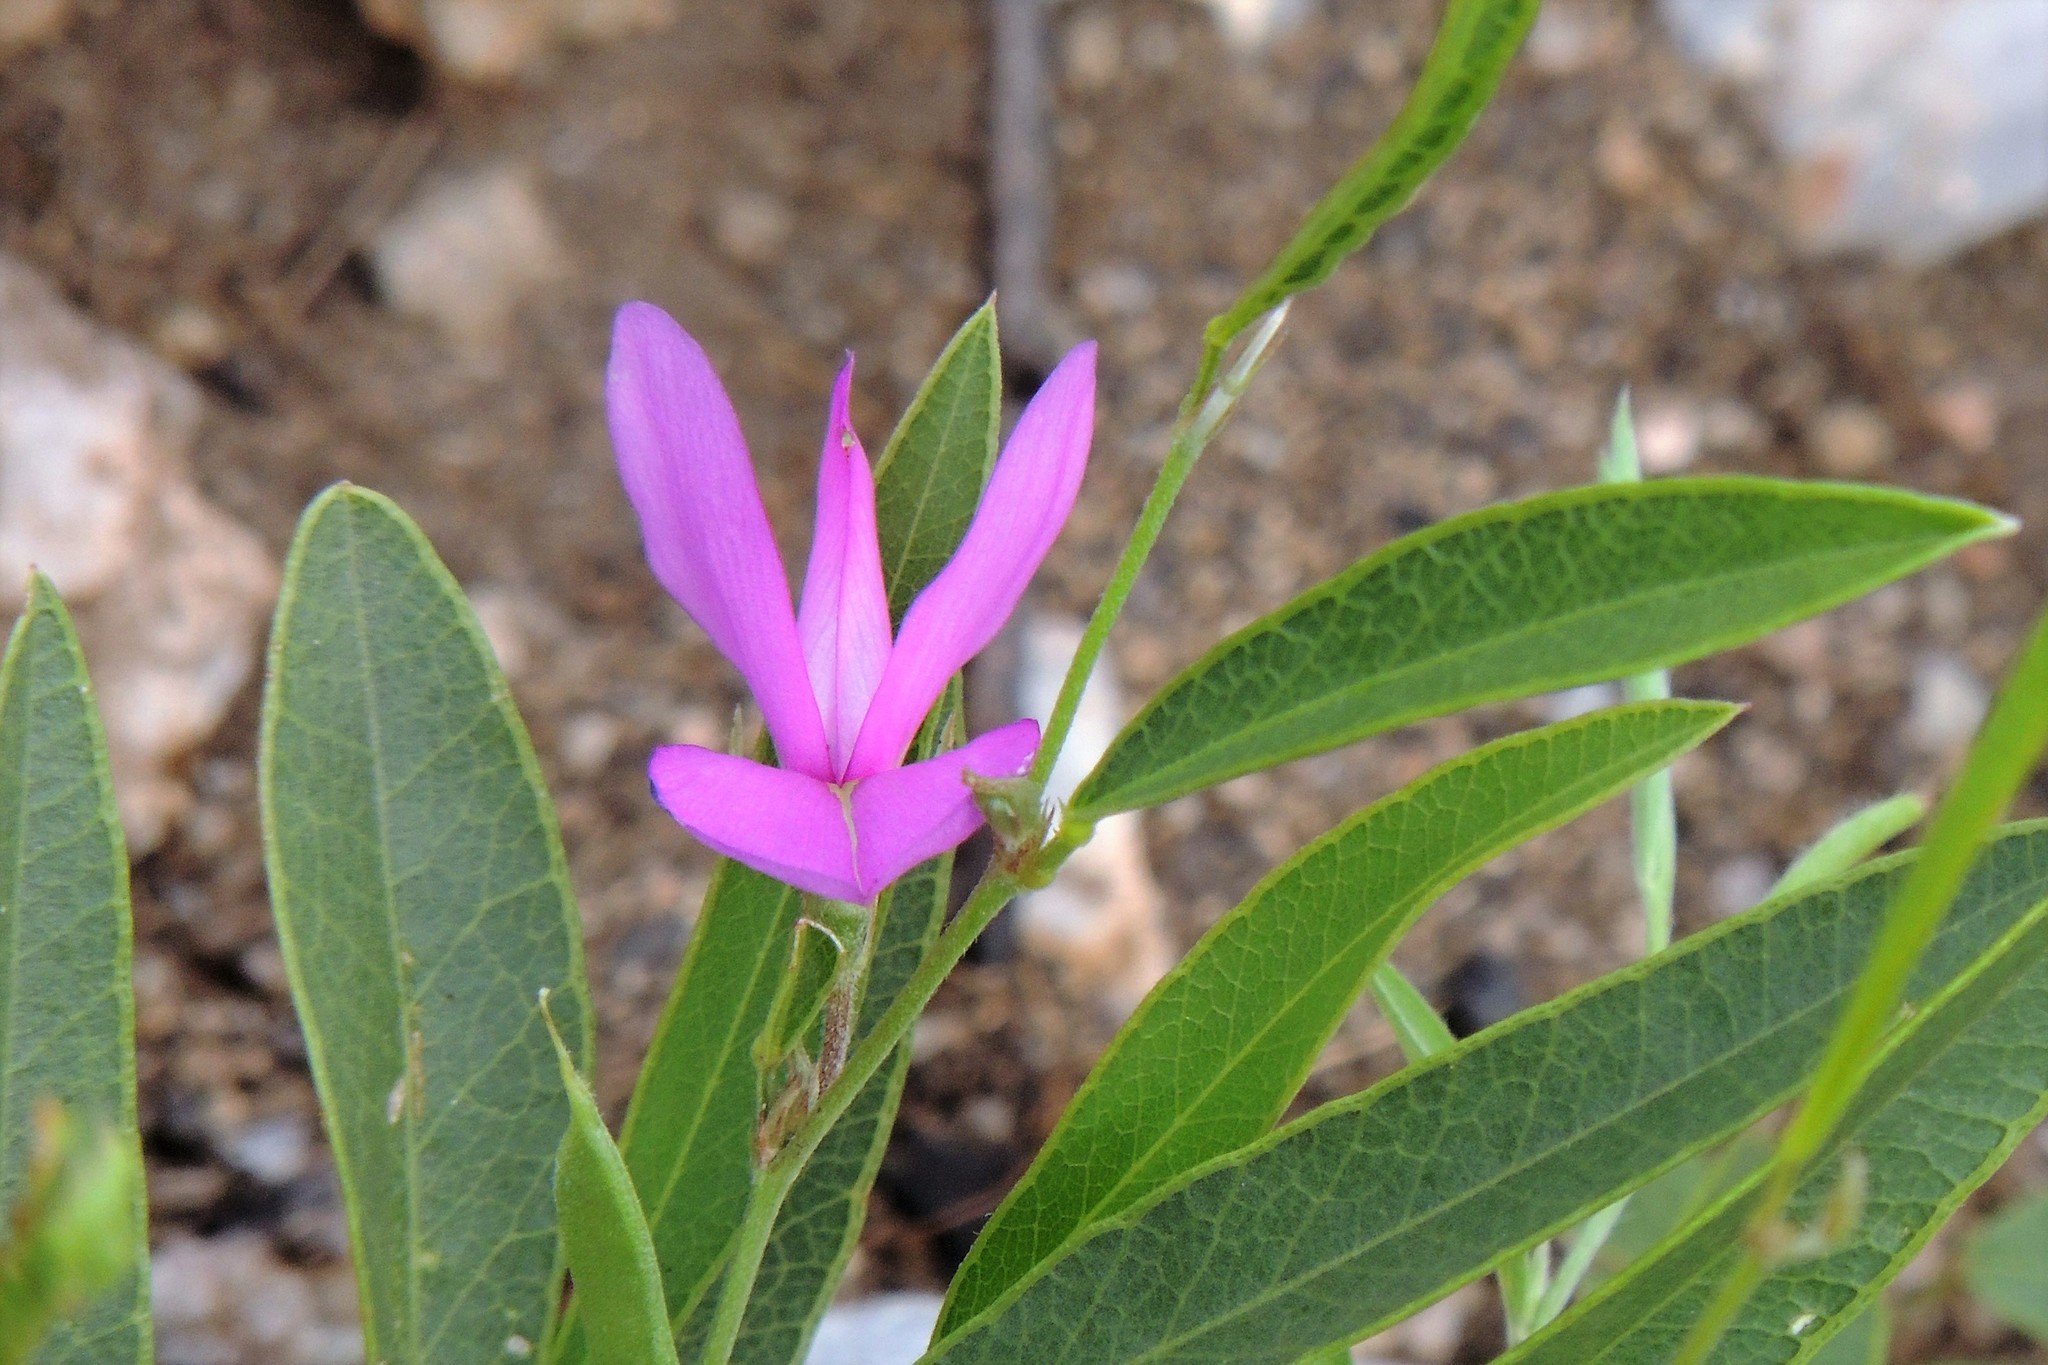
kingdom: Plantae
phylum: Tracheophyta
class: Magnoliopsida
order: Fabales
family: Fabaceae
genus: Nanogalactia
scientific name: Nanogalactia heterophylla
